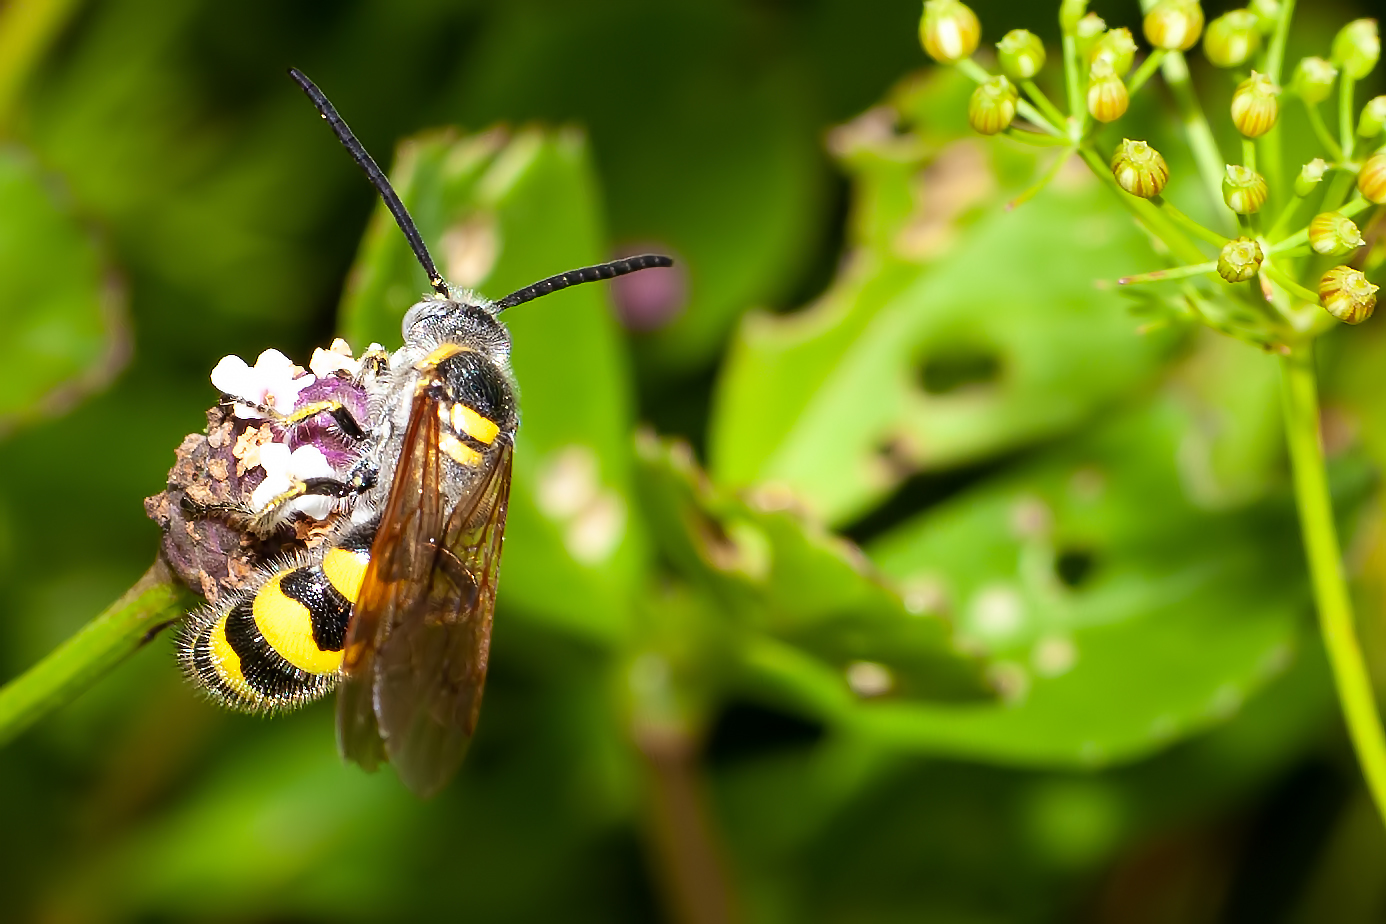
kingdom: Animalia
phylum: Arthropoda
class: Insecta
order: Hymenoptera
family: Scoliidae
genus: Dielis
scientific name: Dielis
